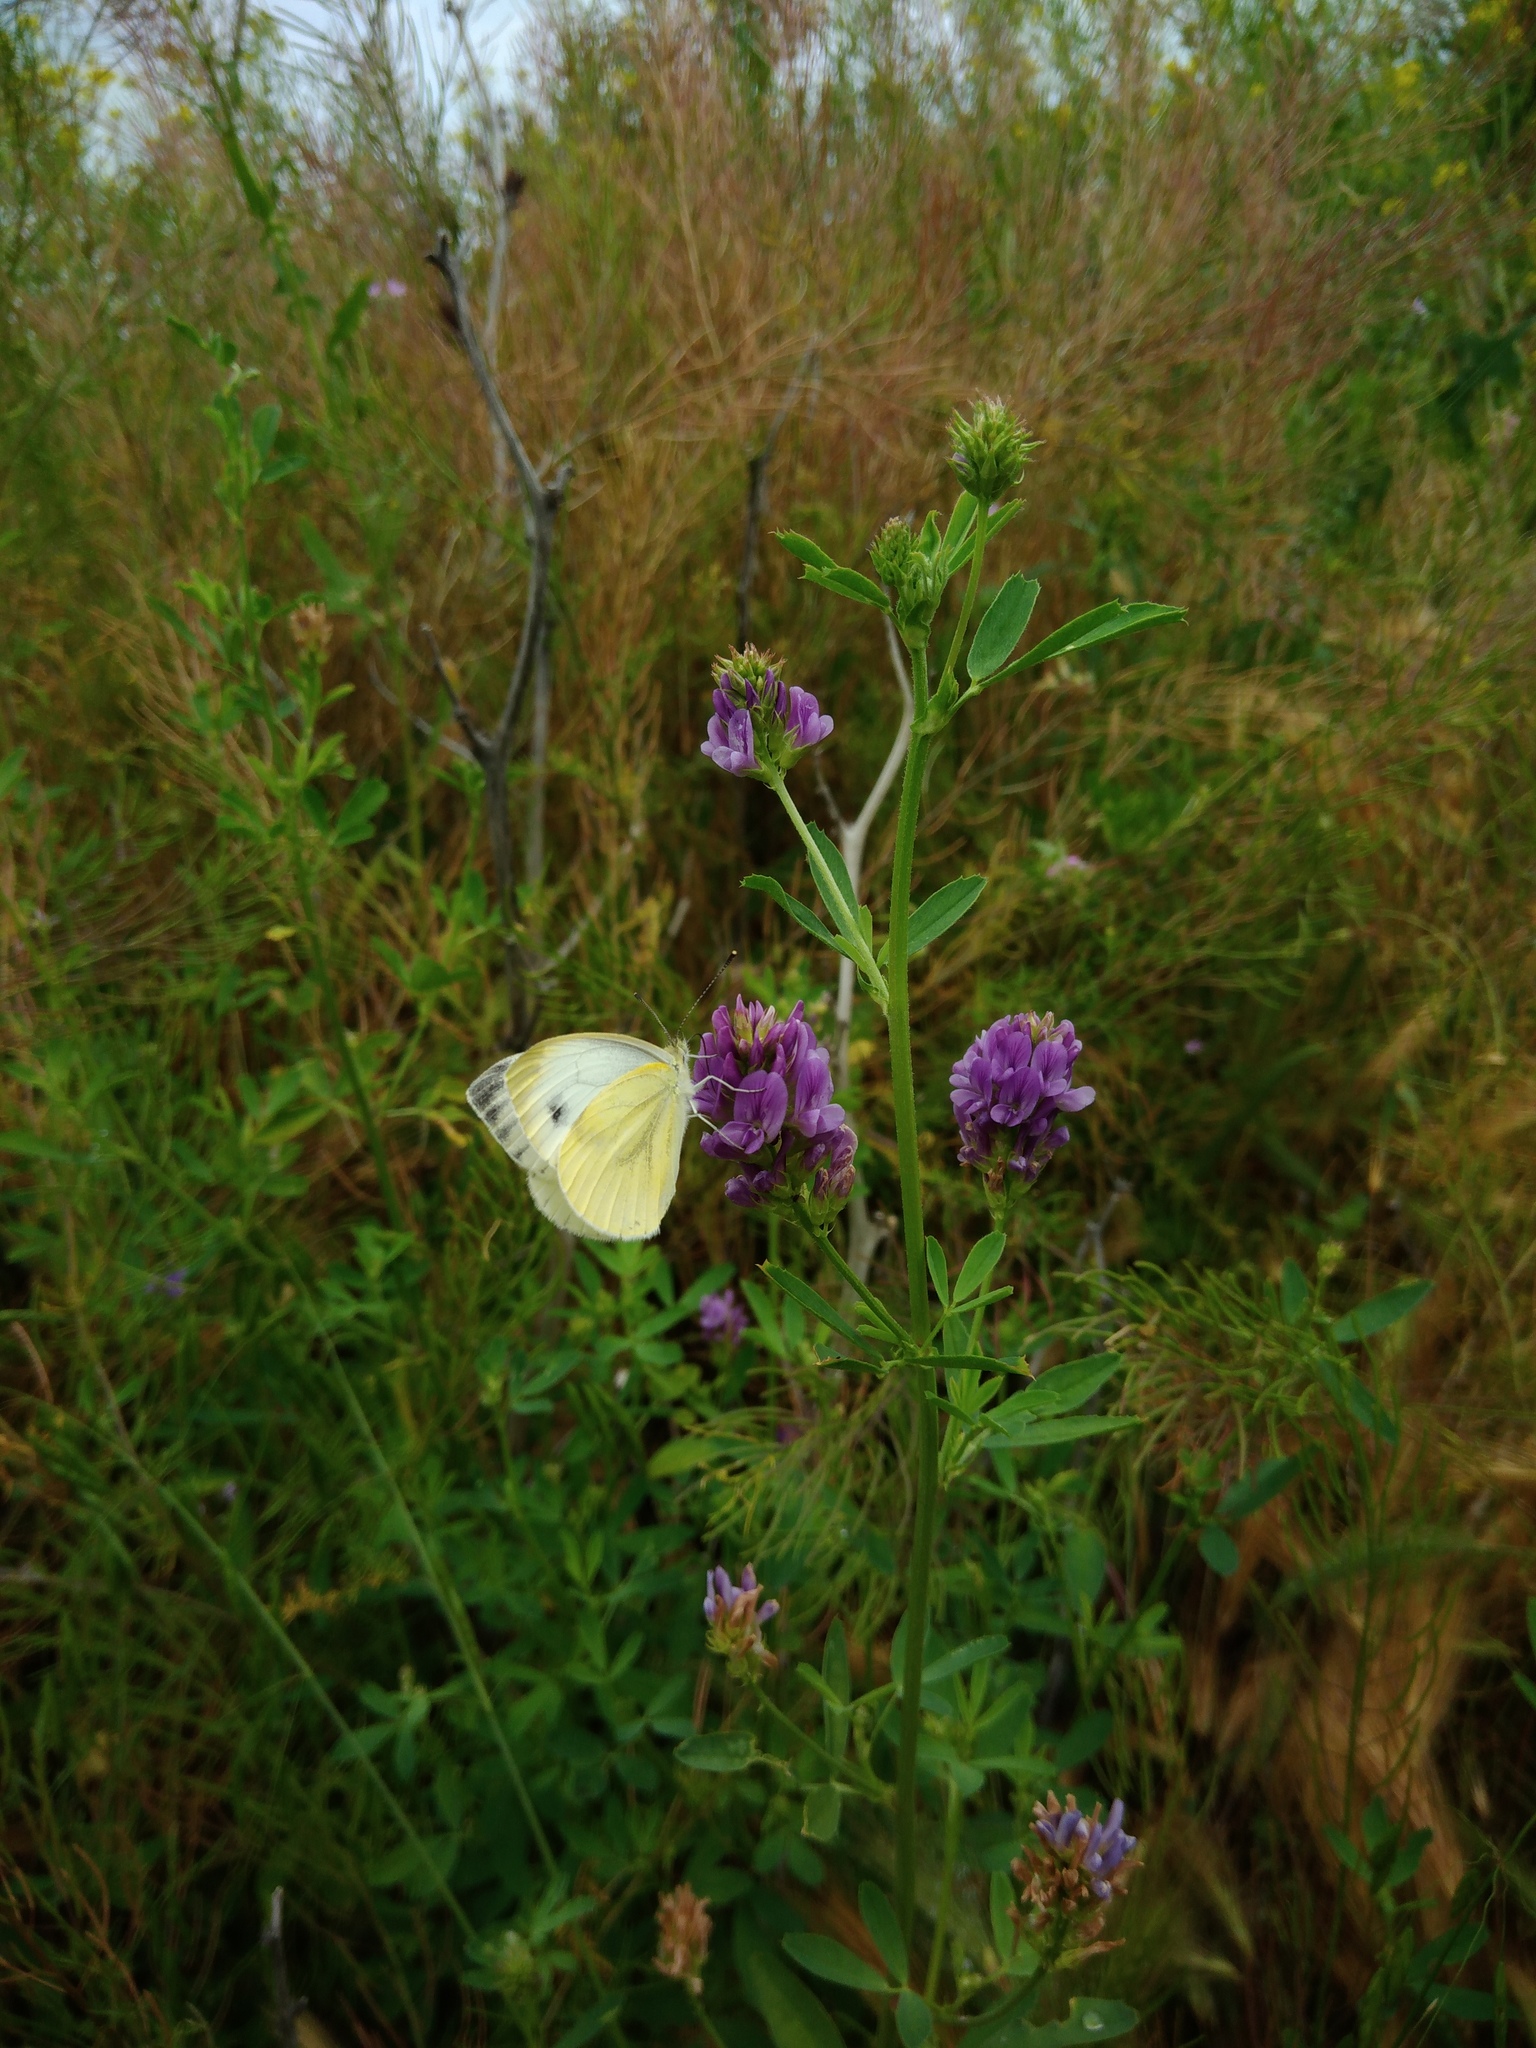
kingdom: Animalia
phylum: Arthropoda
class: Insecta
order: Lepidoptera
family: Pieridae
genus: Pieris
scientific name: Pieris napi
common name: Green-veined white
